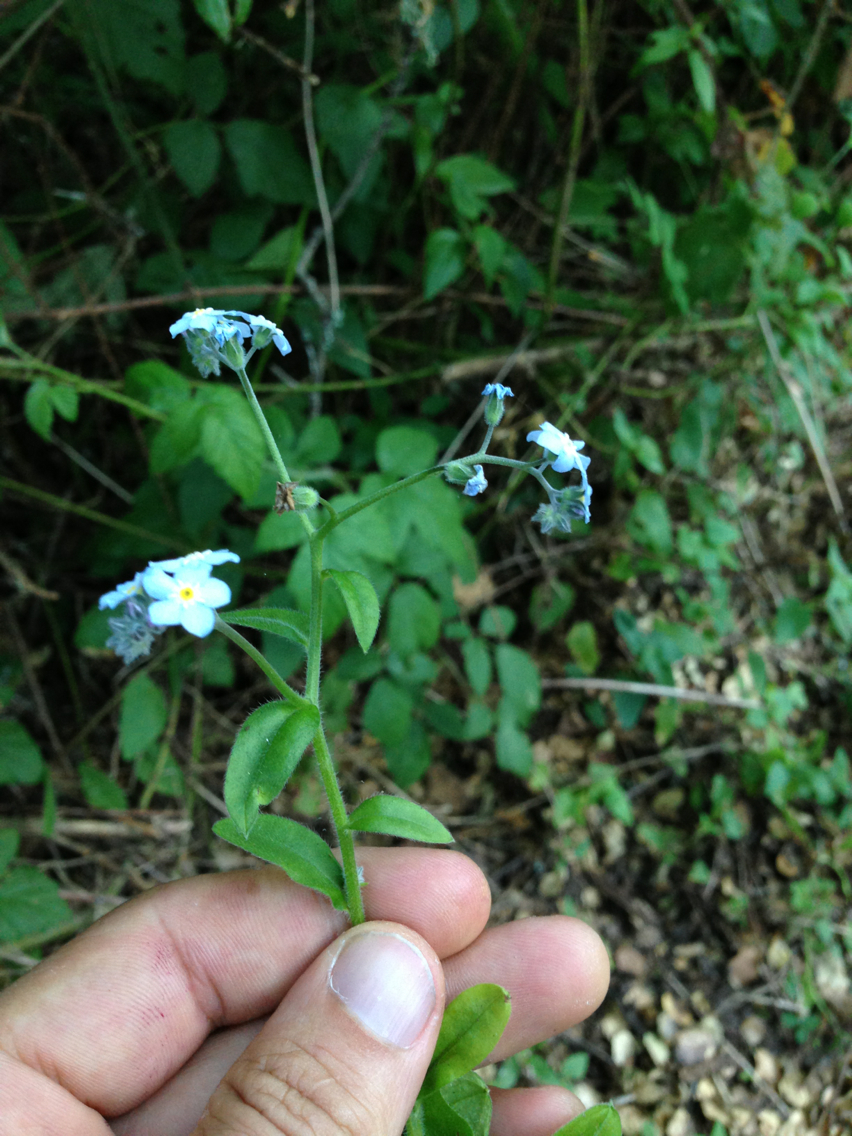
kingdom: Plantae
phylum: Tracheophyta
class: Magnoliopsida
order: Boraginales
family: Boraginaceae
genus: Myosotis
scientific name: Myosotis latifolia
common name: Broadleaf forget-me-not
